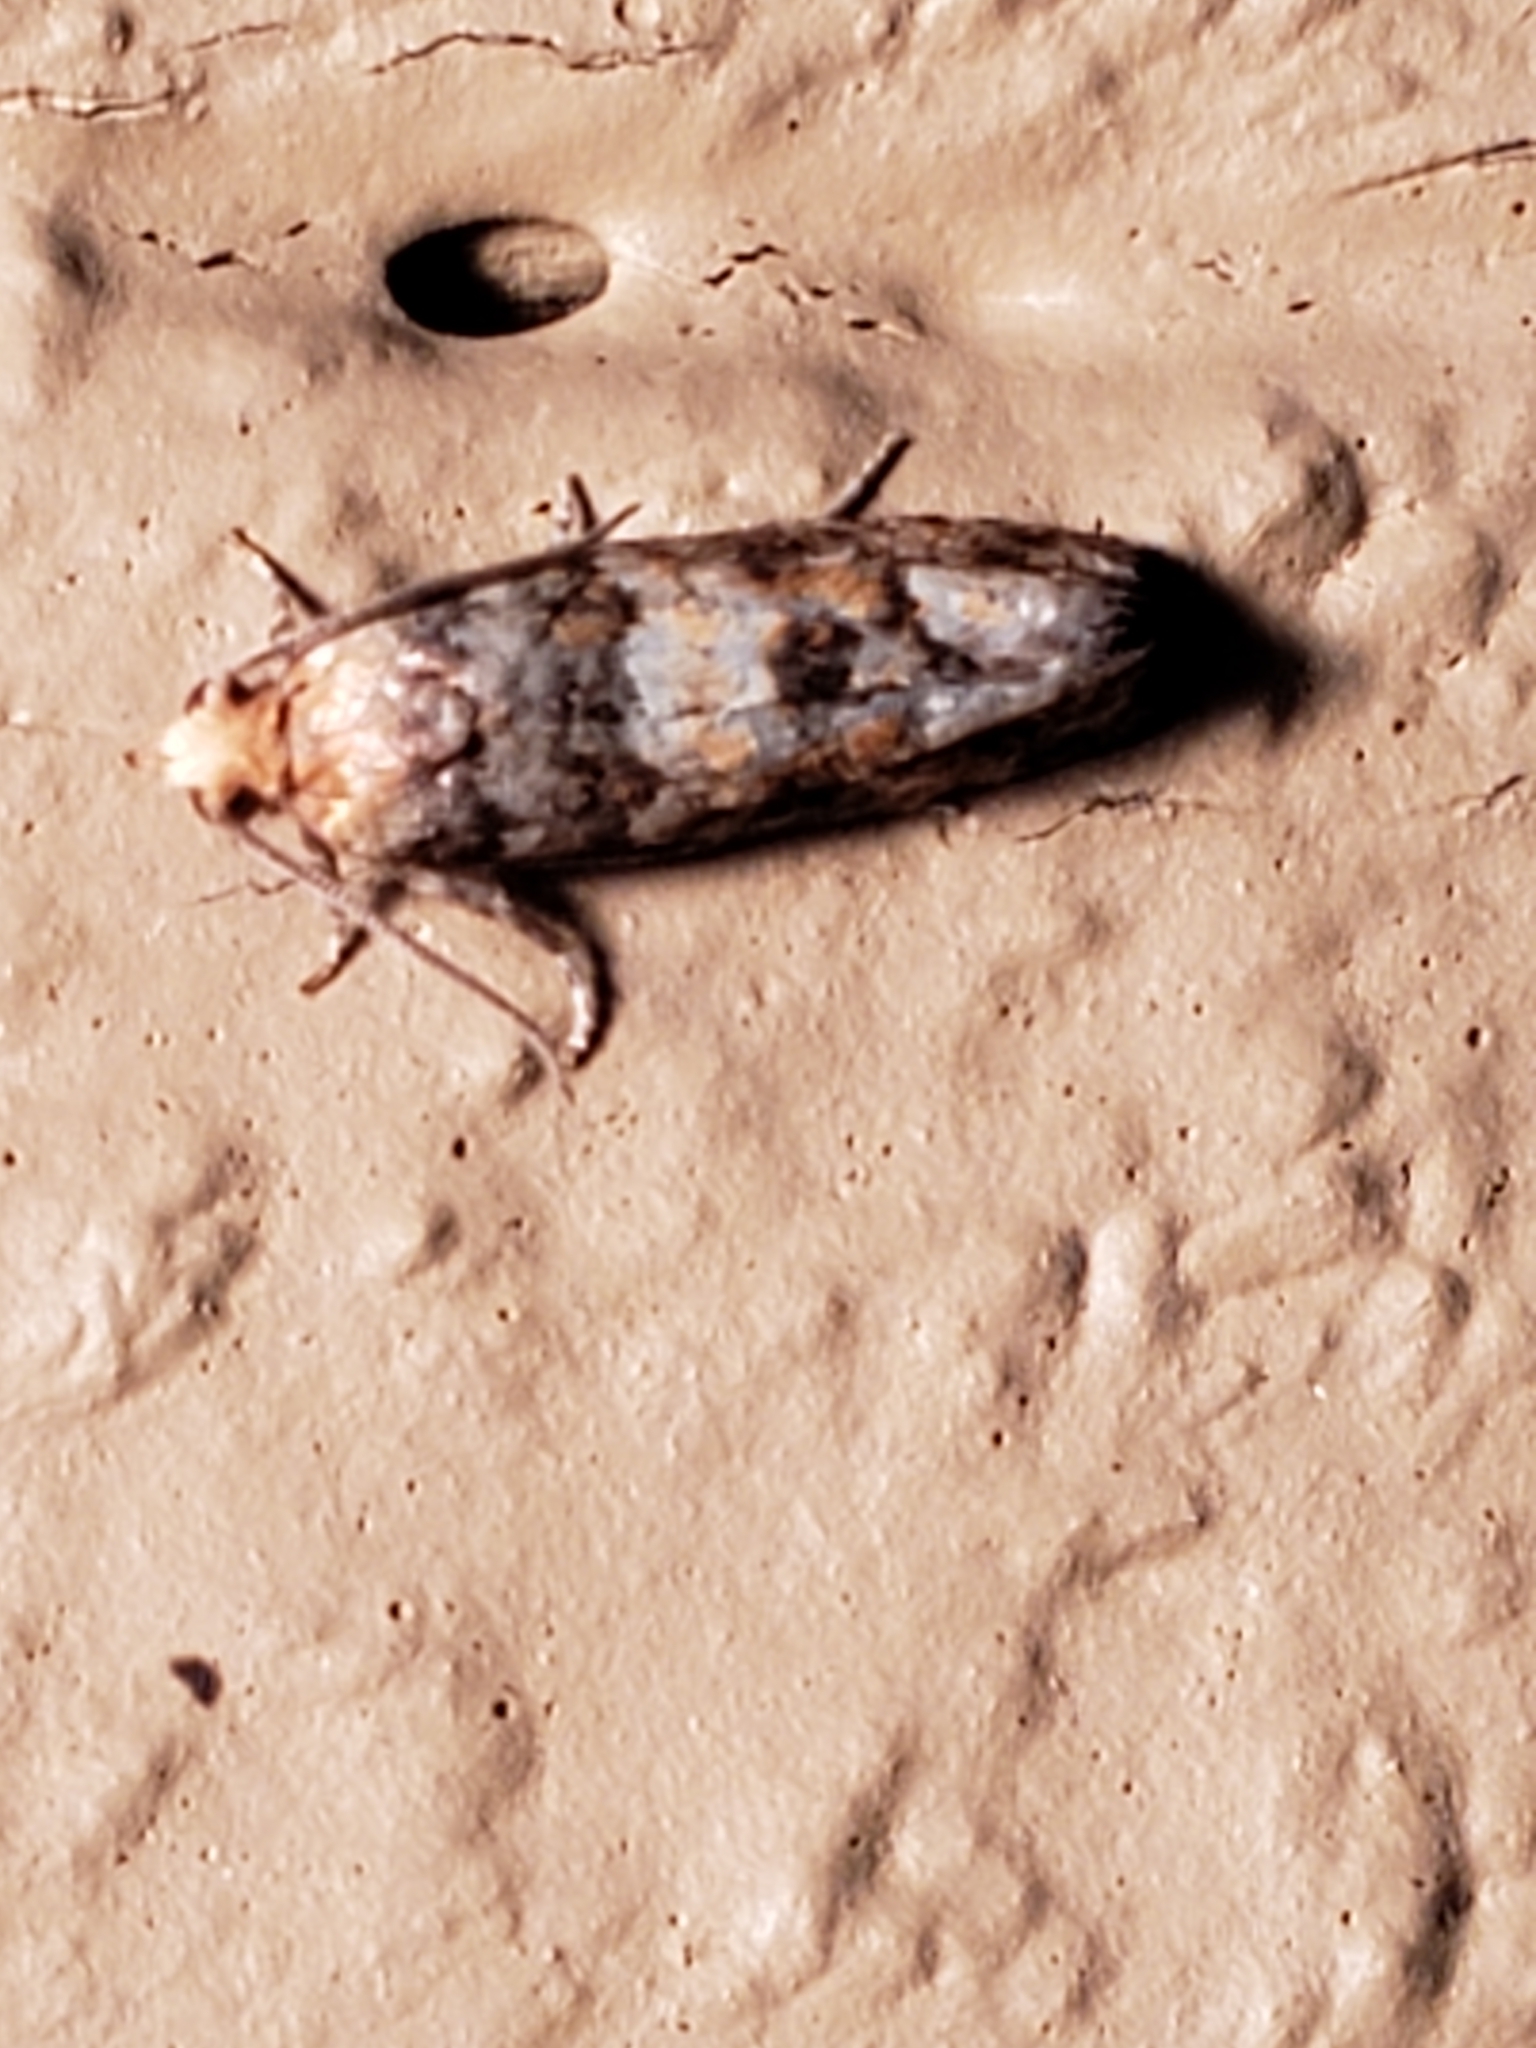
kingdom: Animalia
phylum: Arthropoda
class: Insecta
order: Lepidoptera
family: Tortricidae
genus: Eucopina
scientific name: Eucopina tocullionana
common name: White pinecone borer moth
